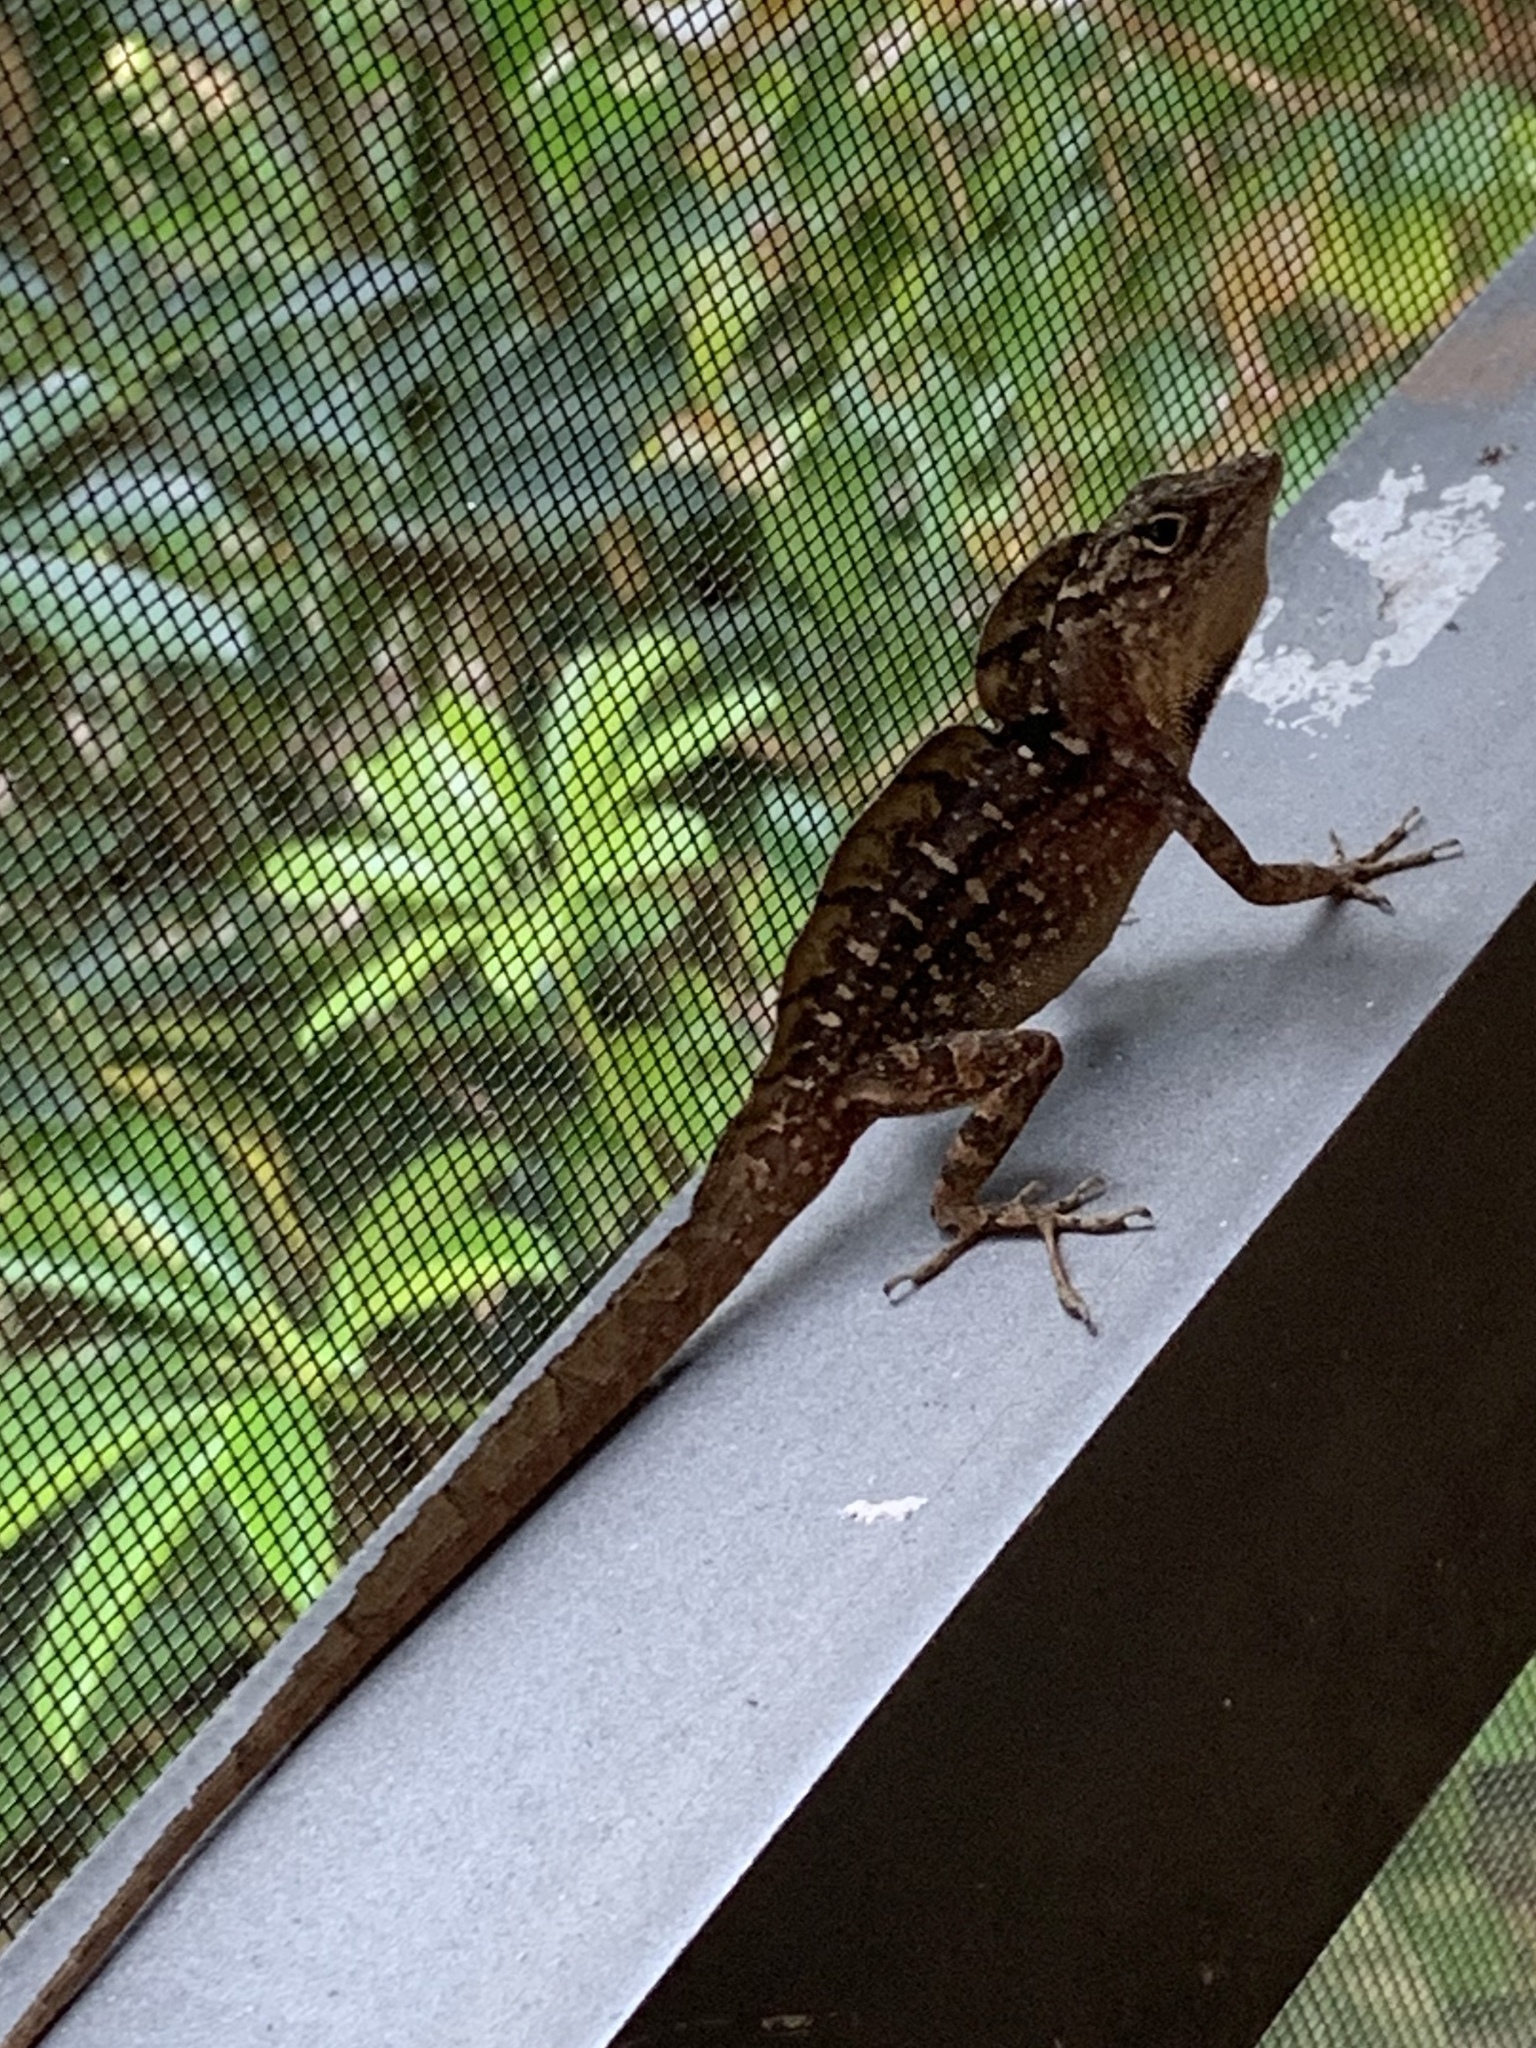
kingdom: Animalia
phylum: Chordata
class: Squamata
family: Dactyloidae
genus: Anolis
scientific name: Anolis sagrei
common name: Brown anole
